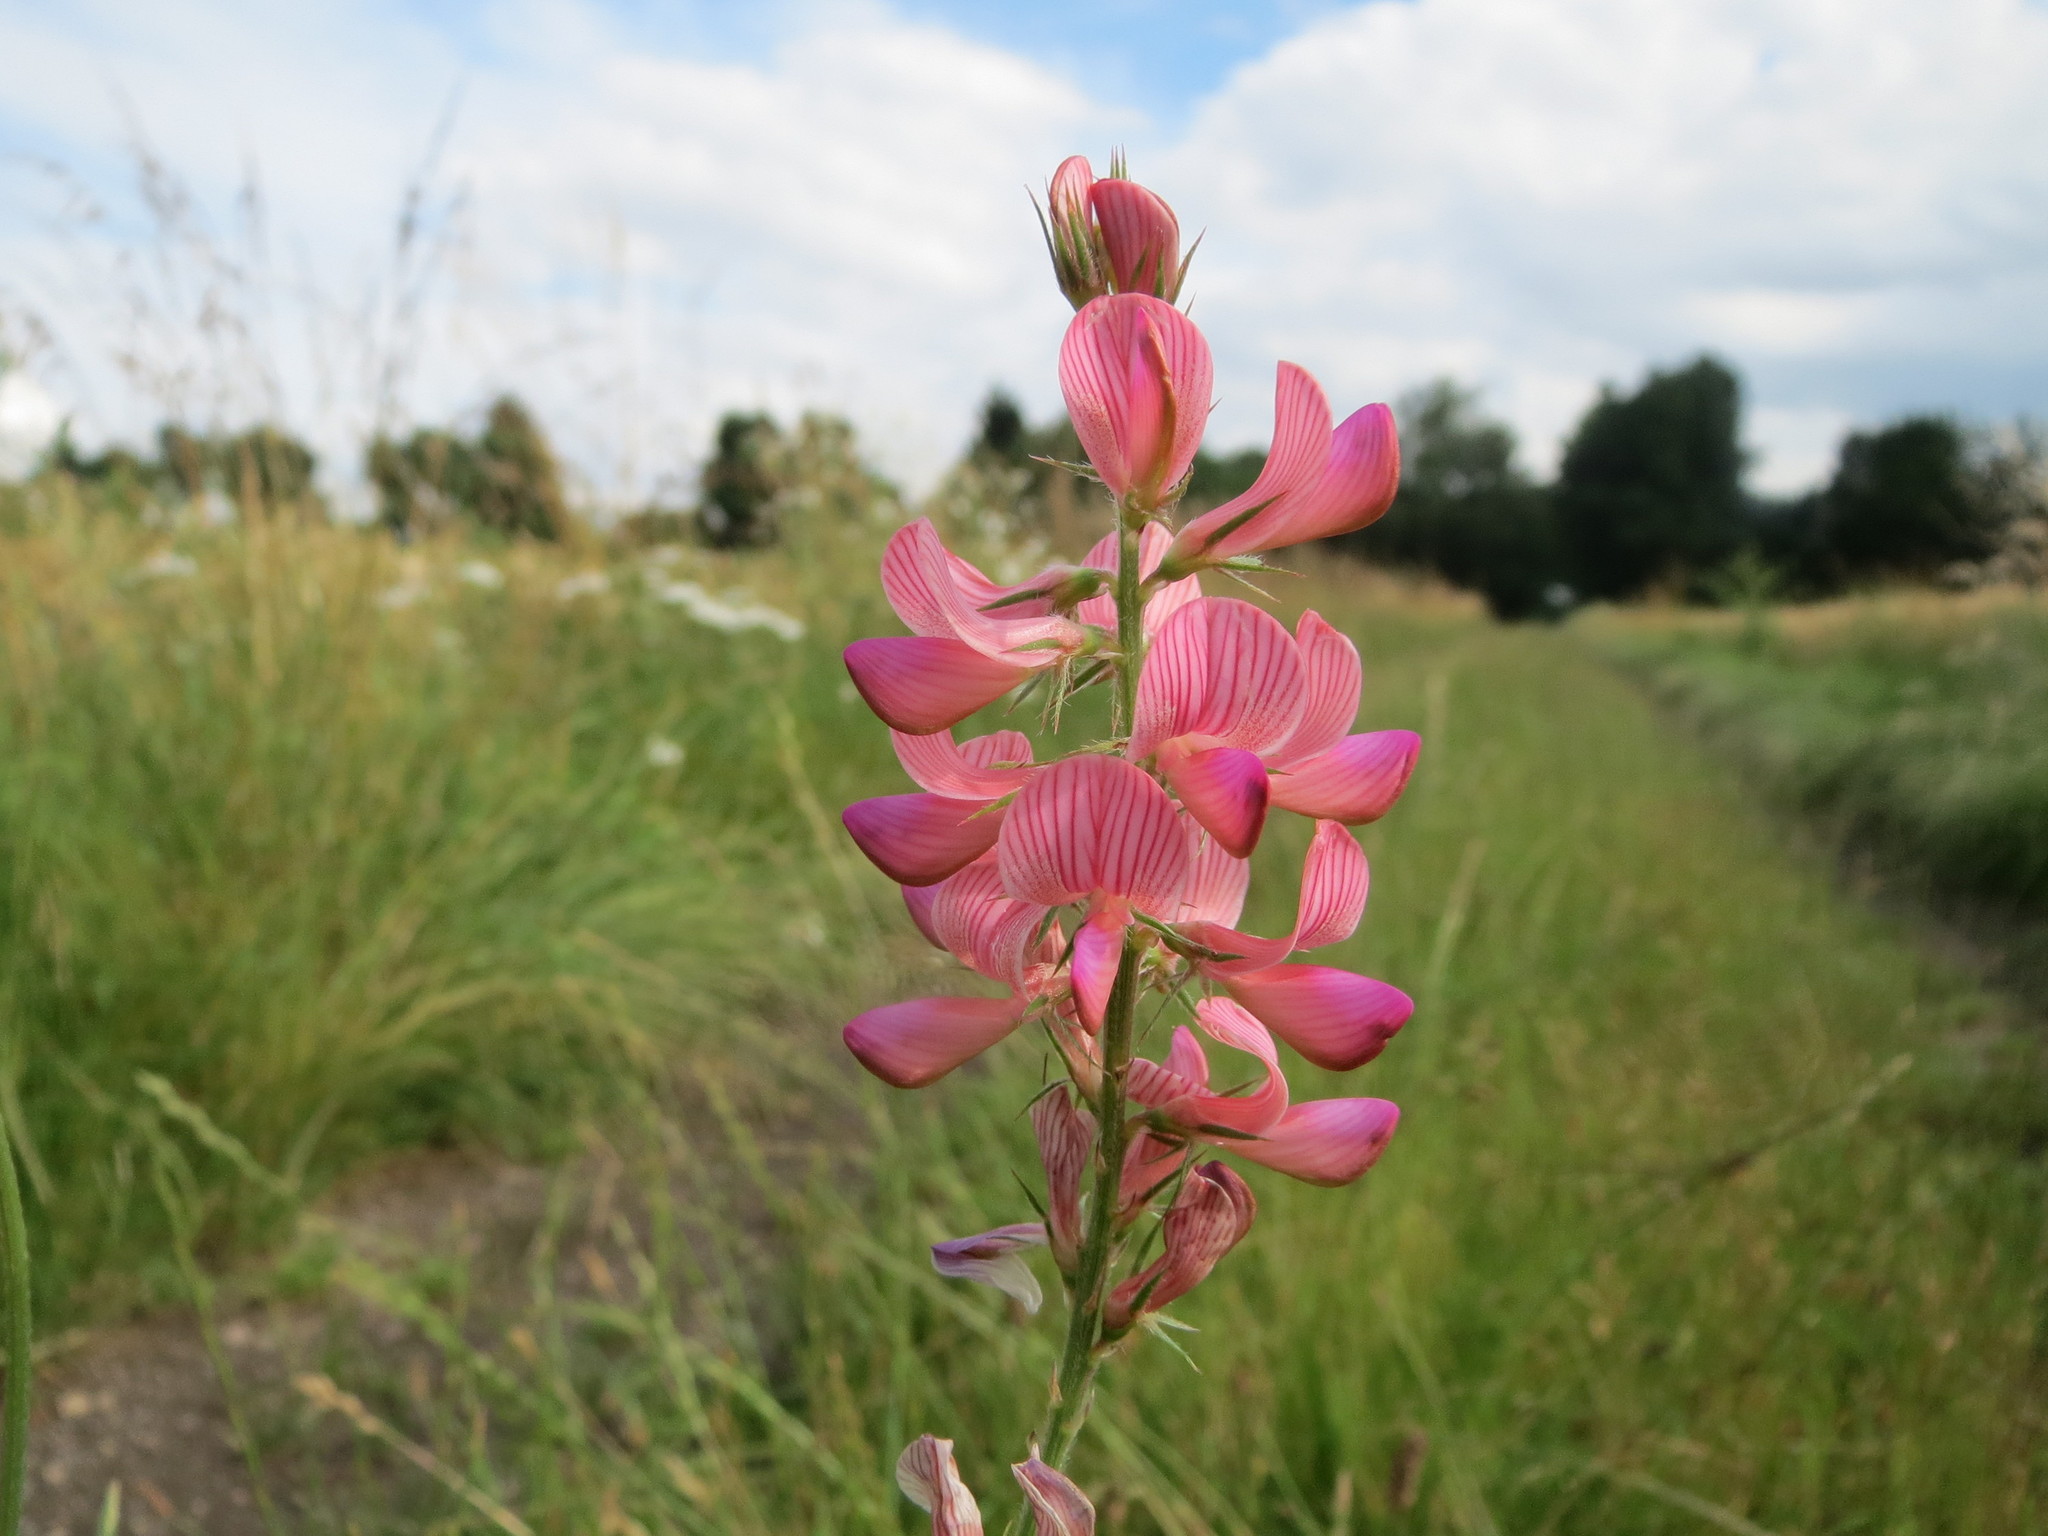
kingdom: Plantae
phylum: Tracheophyta
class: Magnoliopsida
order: Fabales
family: Fabaceae
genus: Onobrychis
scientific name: Onobrychis viciifolia
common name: Sainfoin
